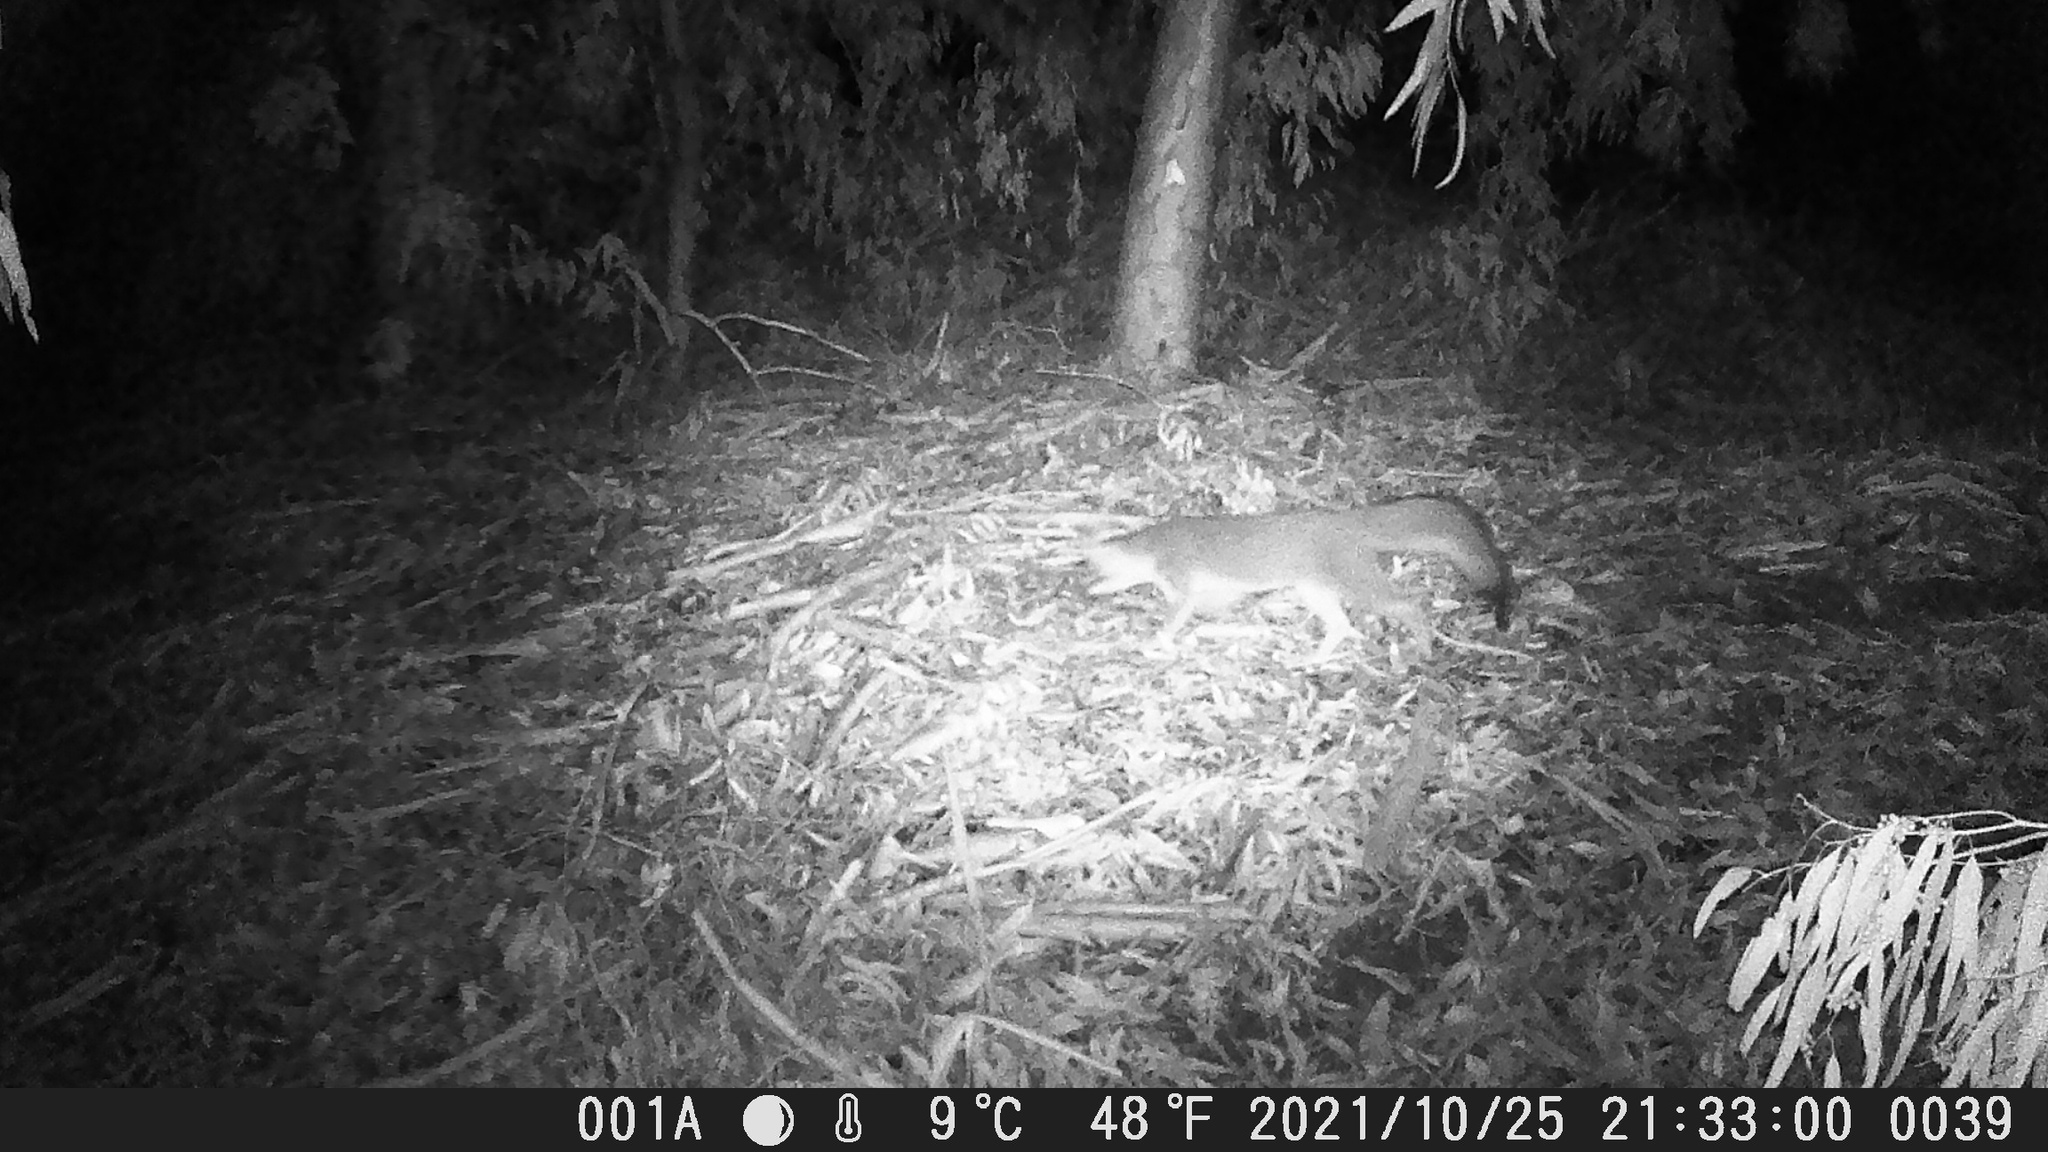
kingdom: Animalia
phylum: Chordata
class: Mammalia
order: Carnivora
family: Canidae
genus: Urocyon
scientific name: Urocyon cinereoargenteus
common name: Gray fox
